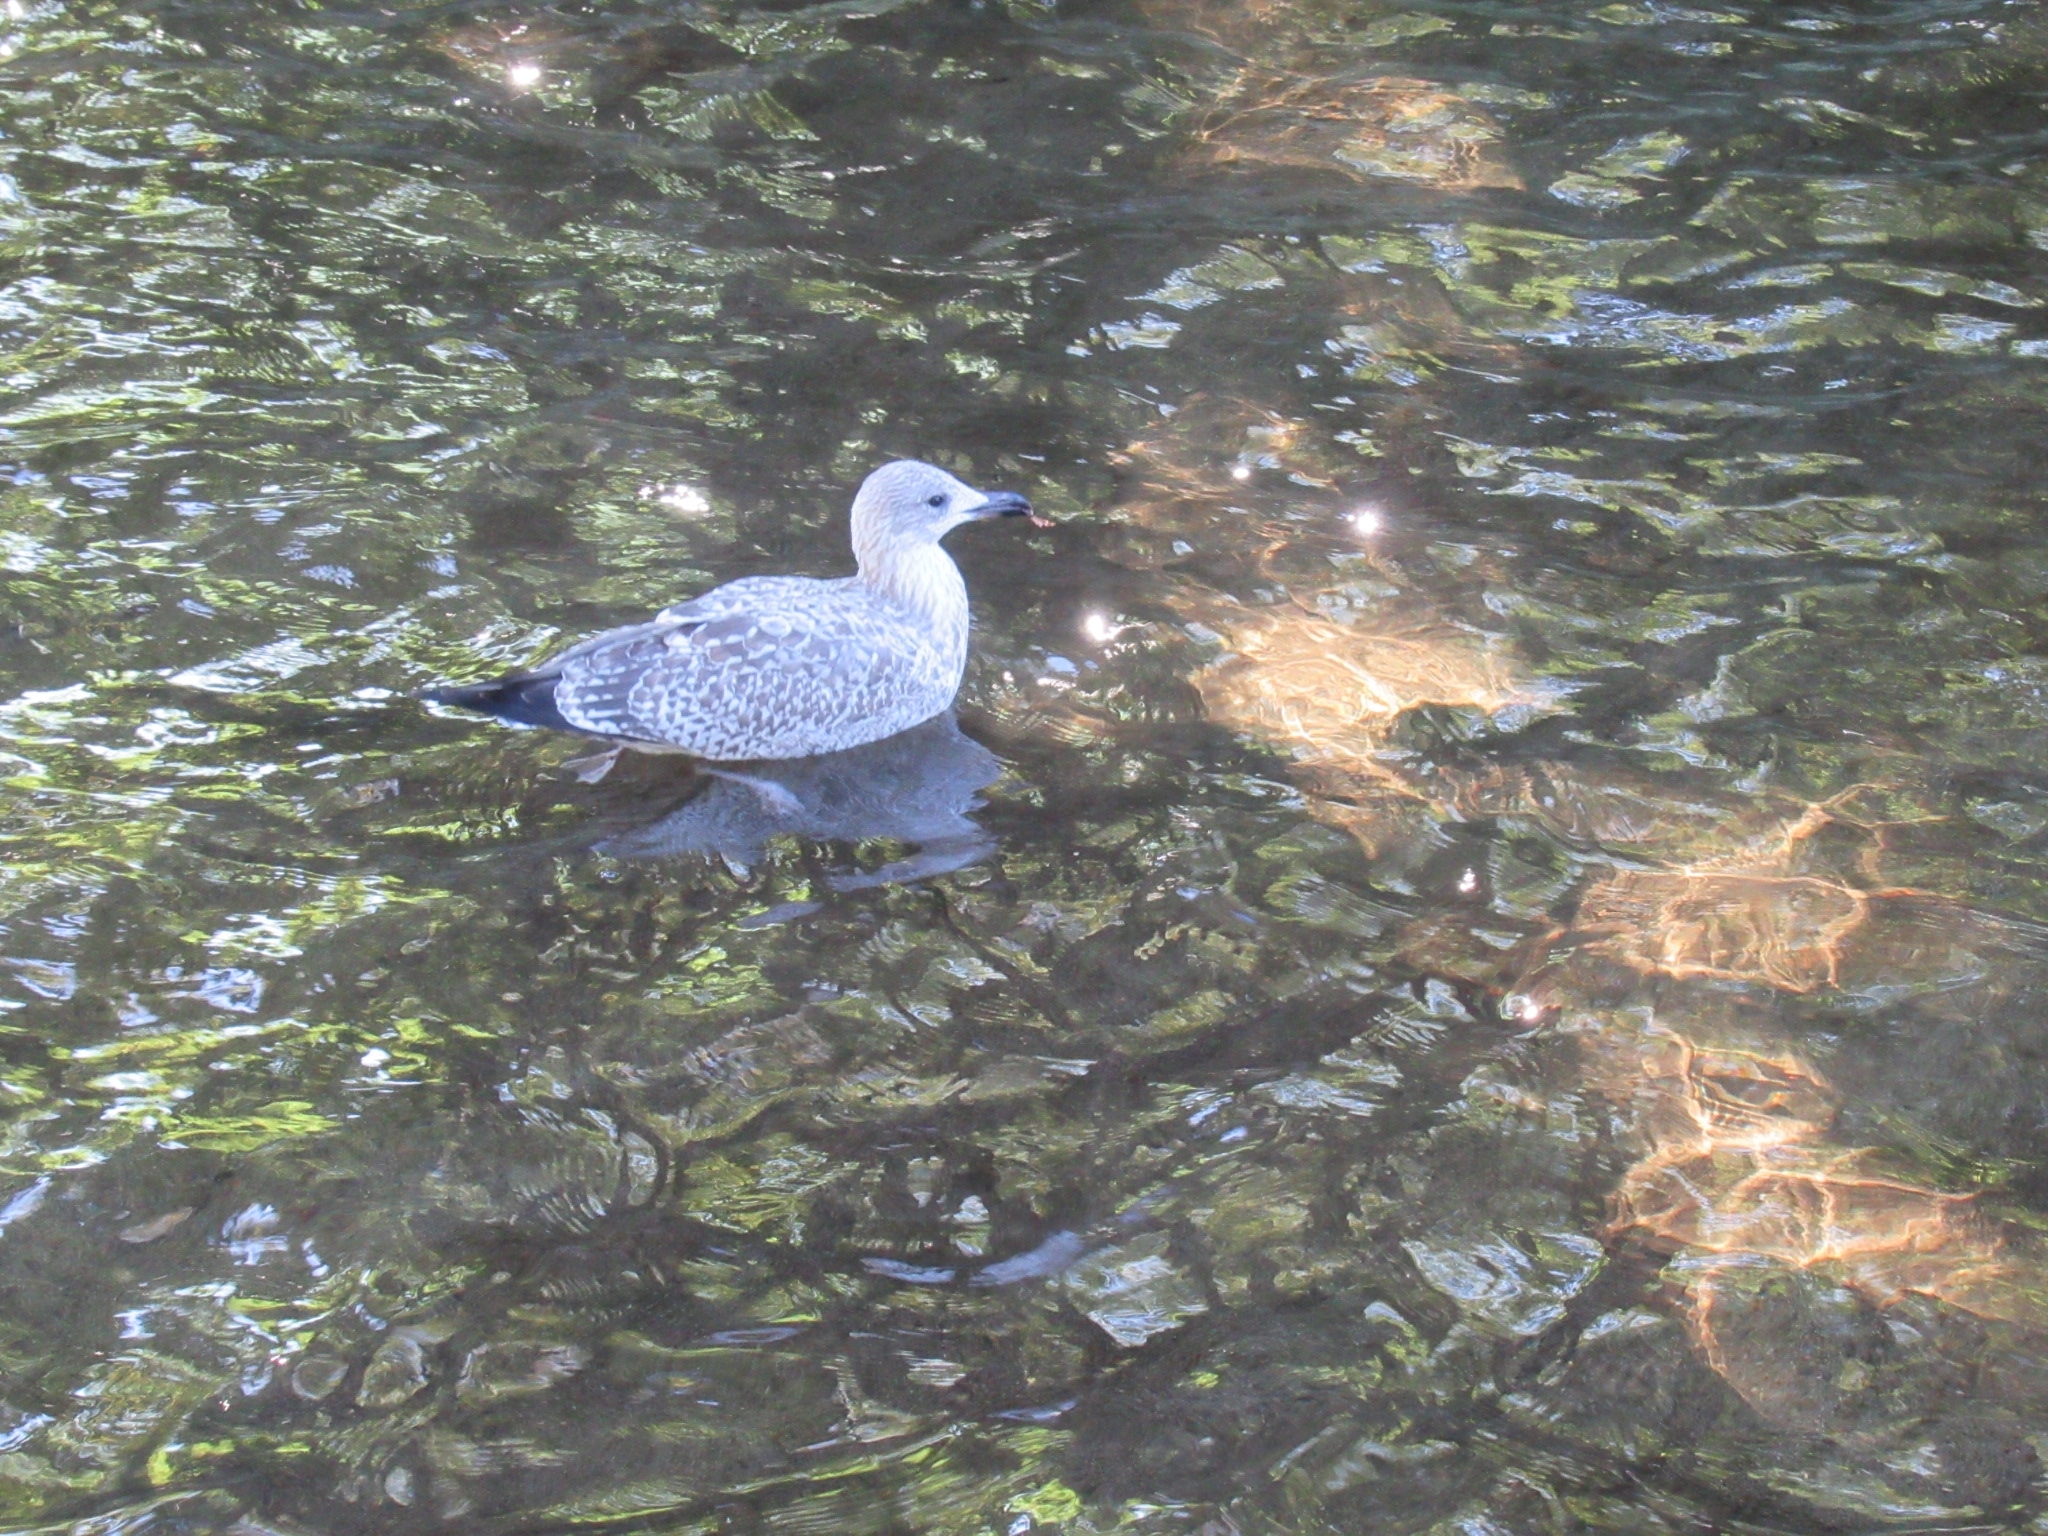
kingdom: Animalia
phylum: Chordata
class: Aves
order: Charadriiformes
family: Laridae
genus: Larus
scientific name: Larus argentatus
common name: Herring gull
